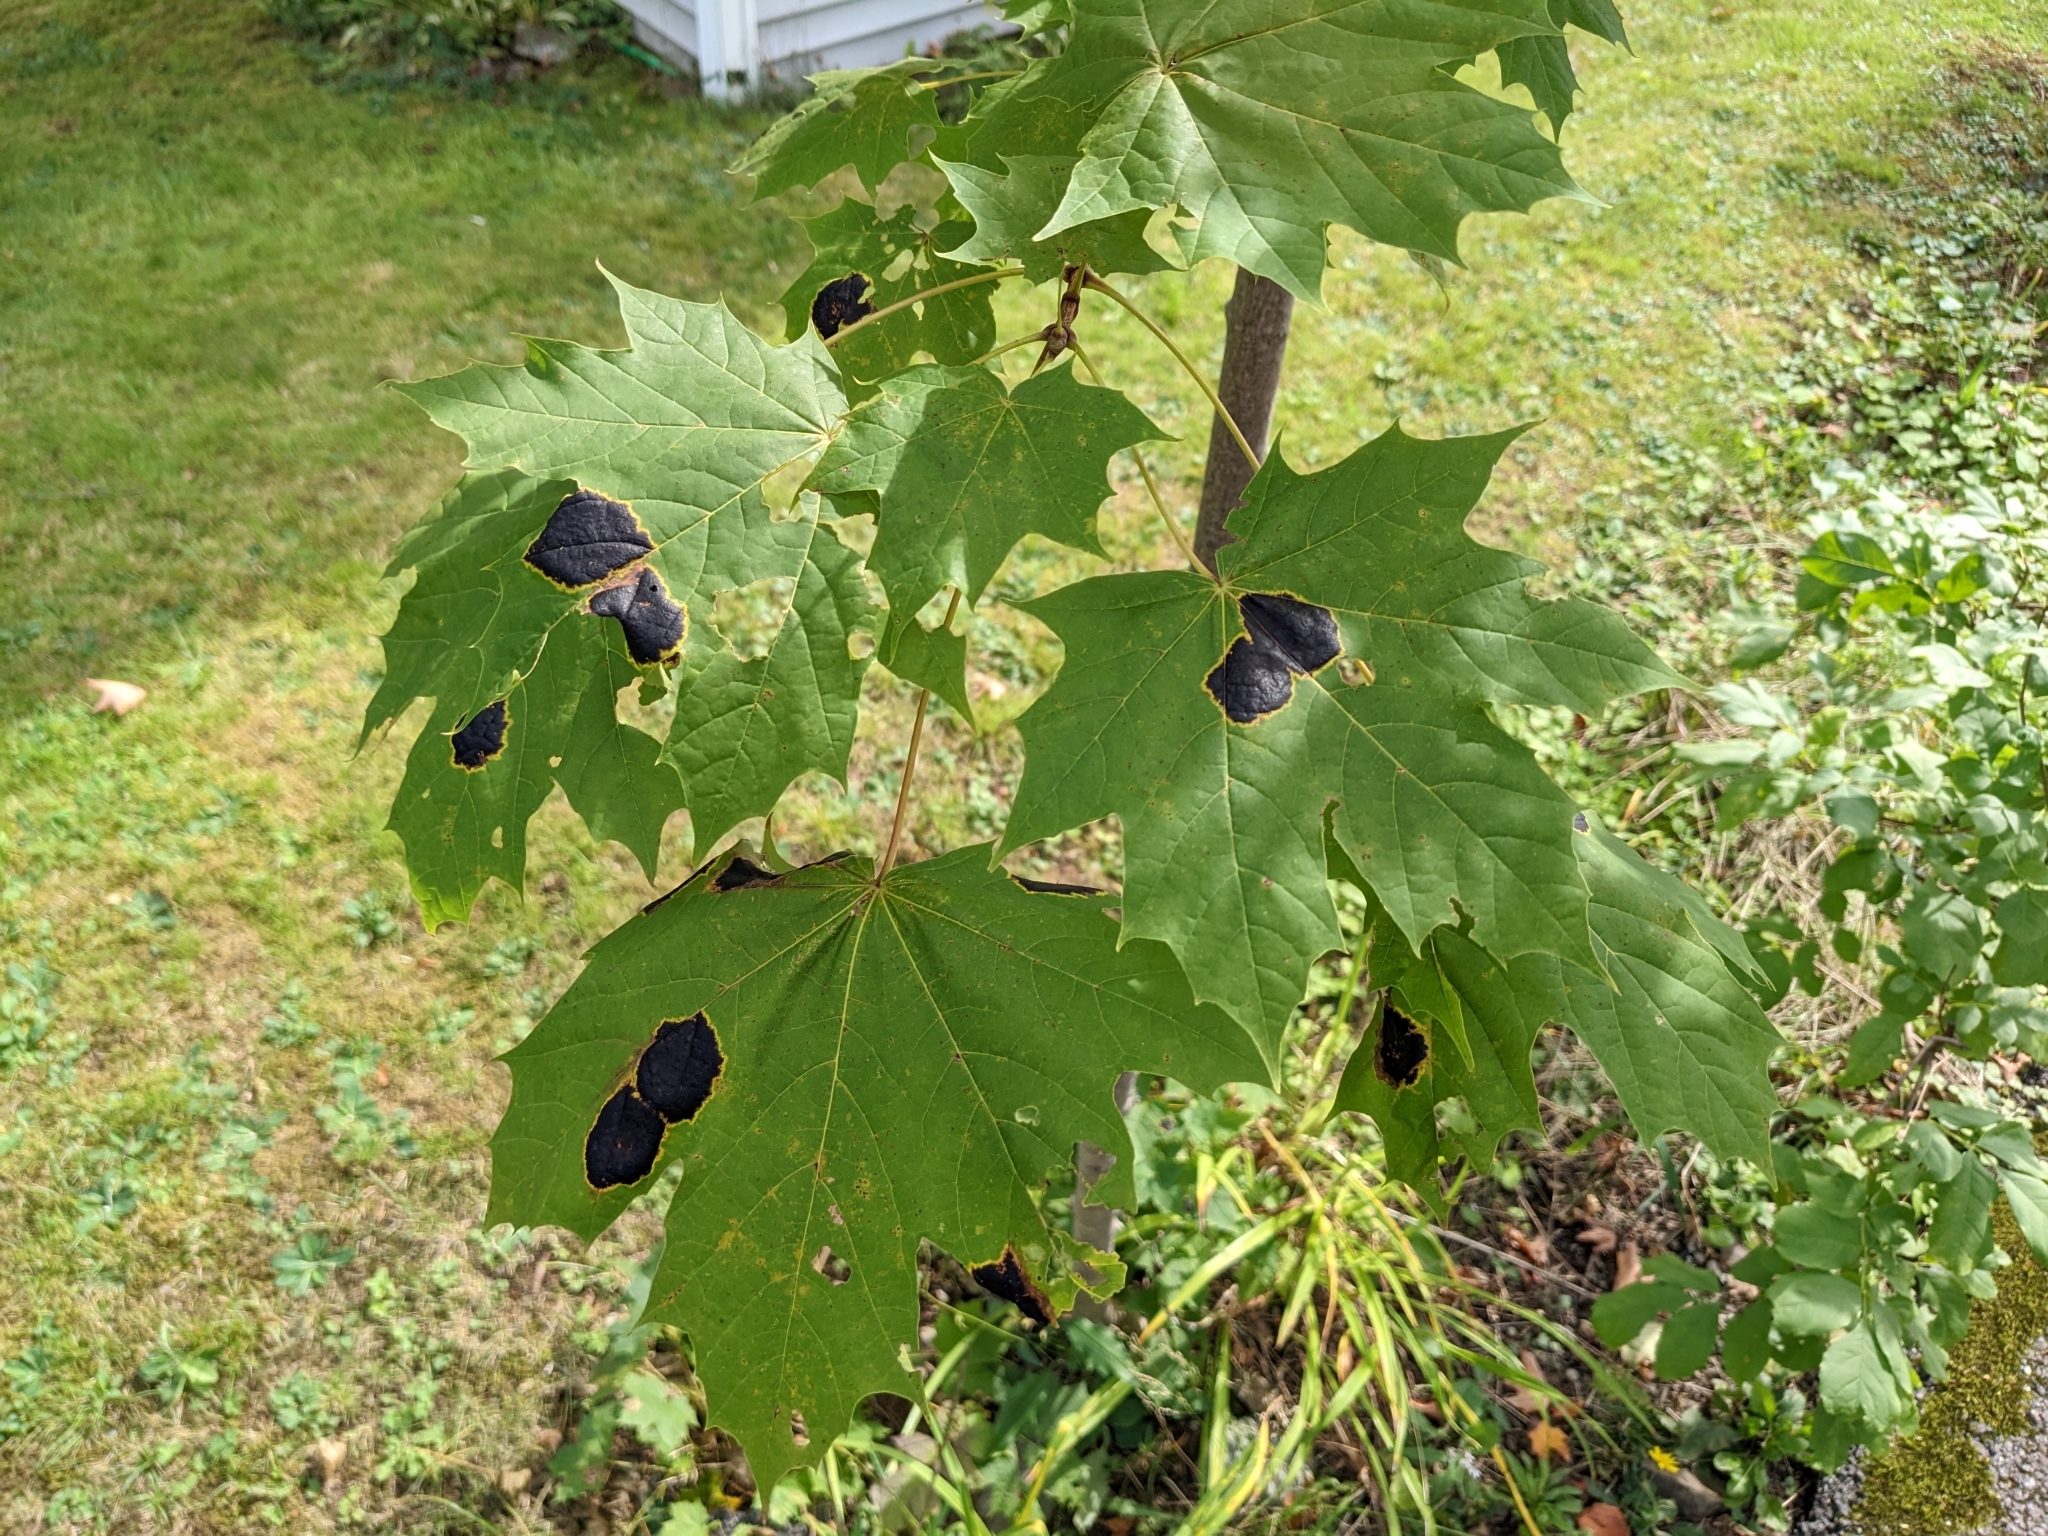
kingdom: Fungi
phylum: Ascomycota
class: Leotiomycetes
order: Rhytismatales
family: Rhytismataceae
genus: Rhytisma
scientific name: Rhytisma acerinum
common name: European tar spot
